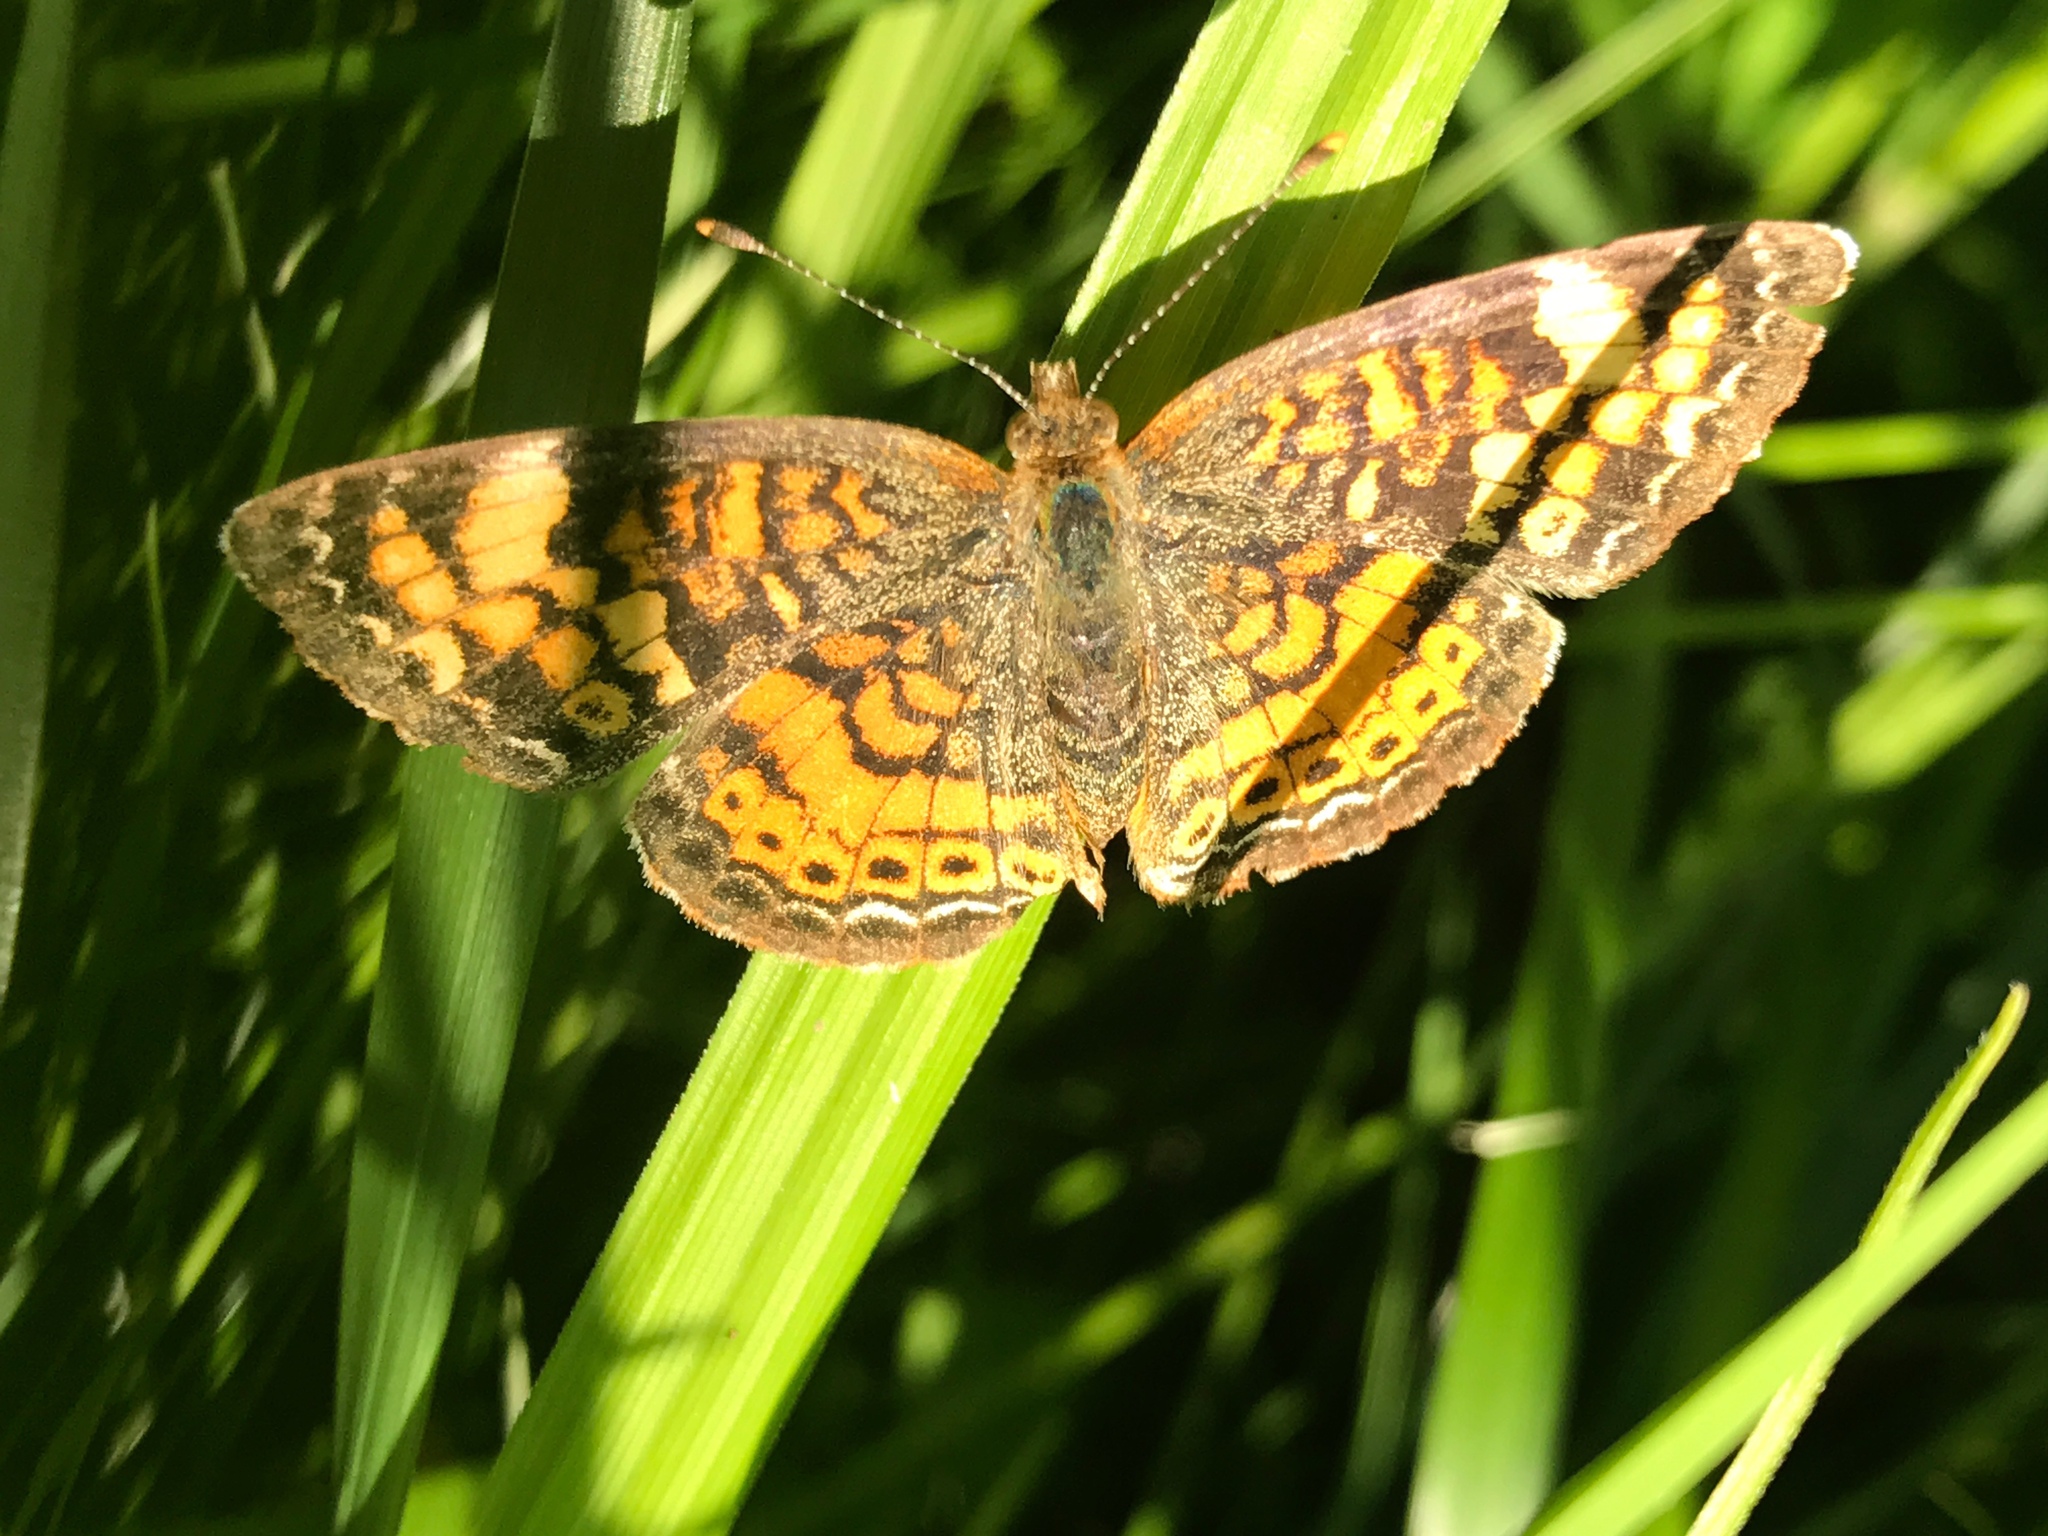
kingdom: Animalia
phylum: Arthropoda
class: Insecta
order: Lepidoptera
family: Nymphalidae
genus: Phyciodes
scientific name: Phyciodes tharos
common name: Pearl crescent
